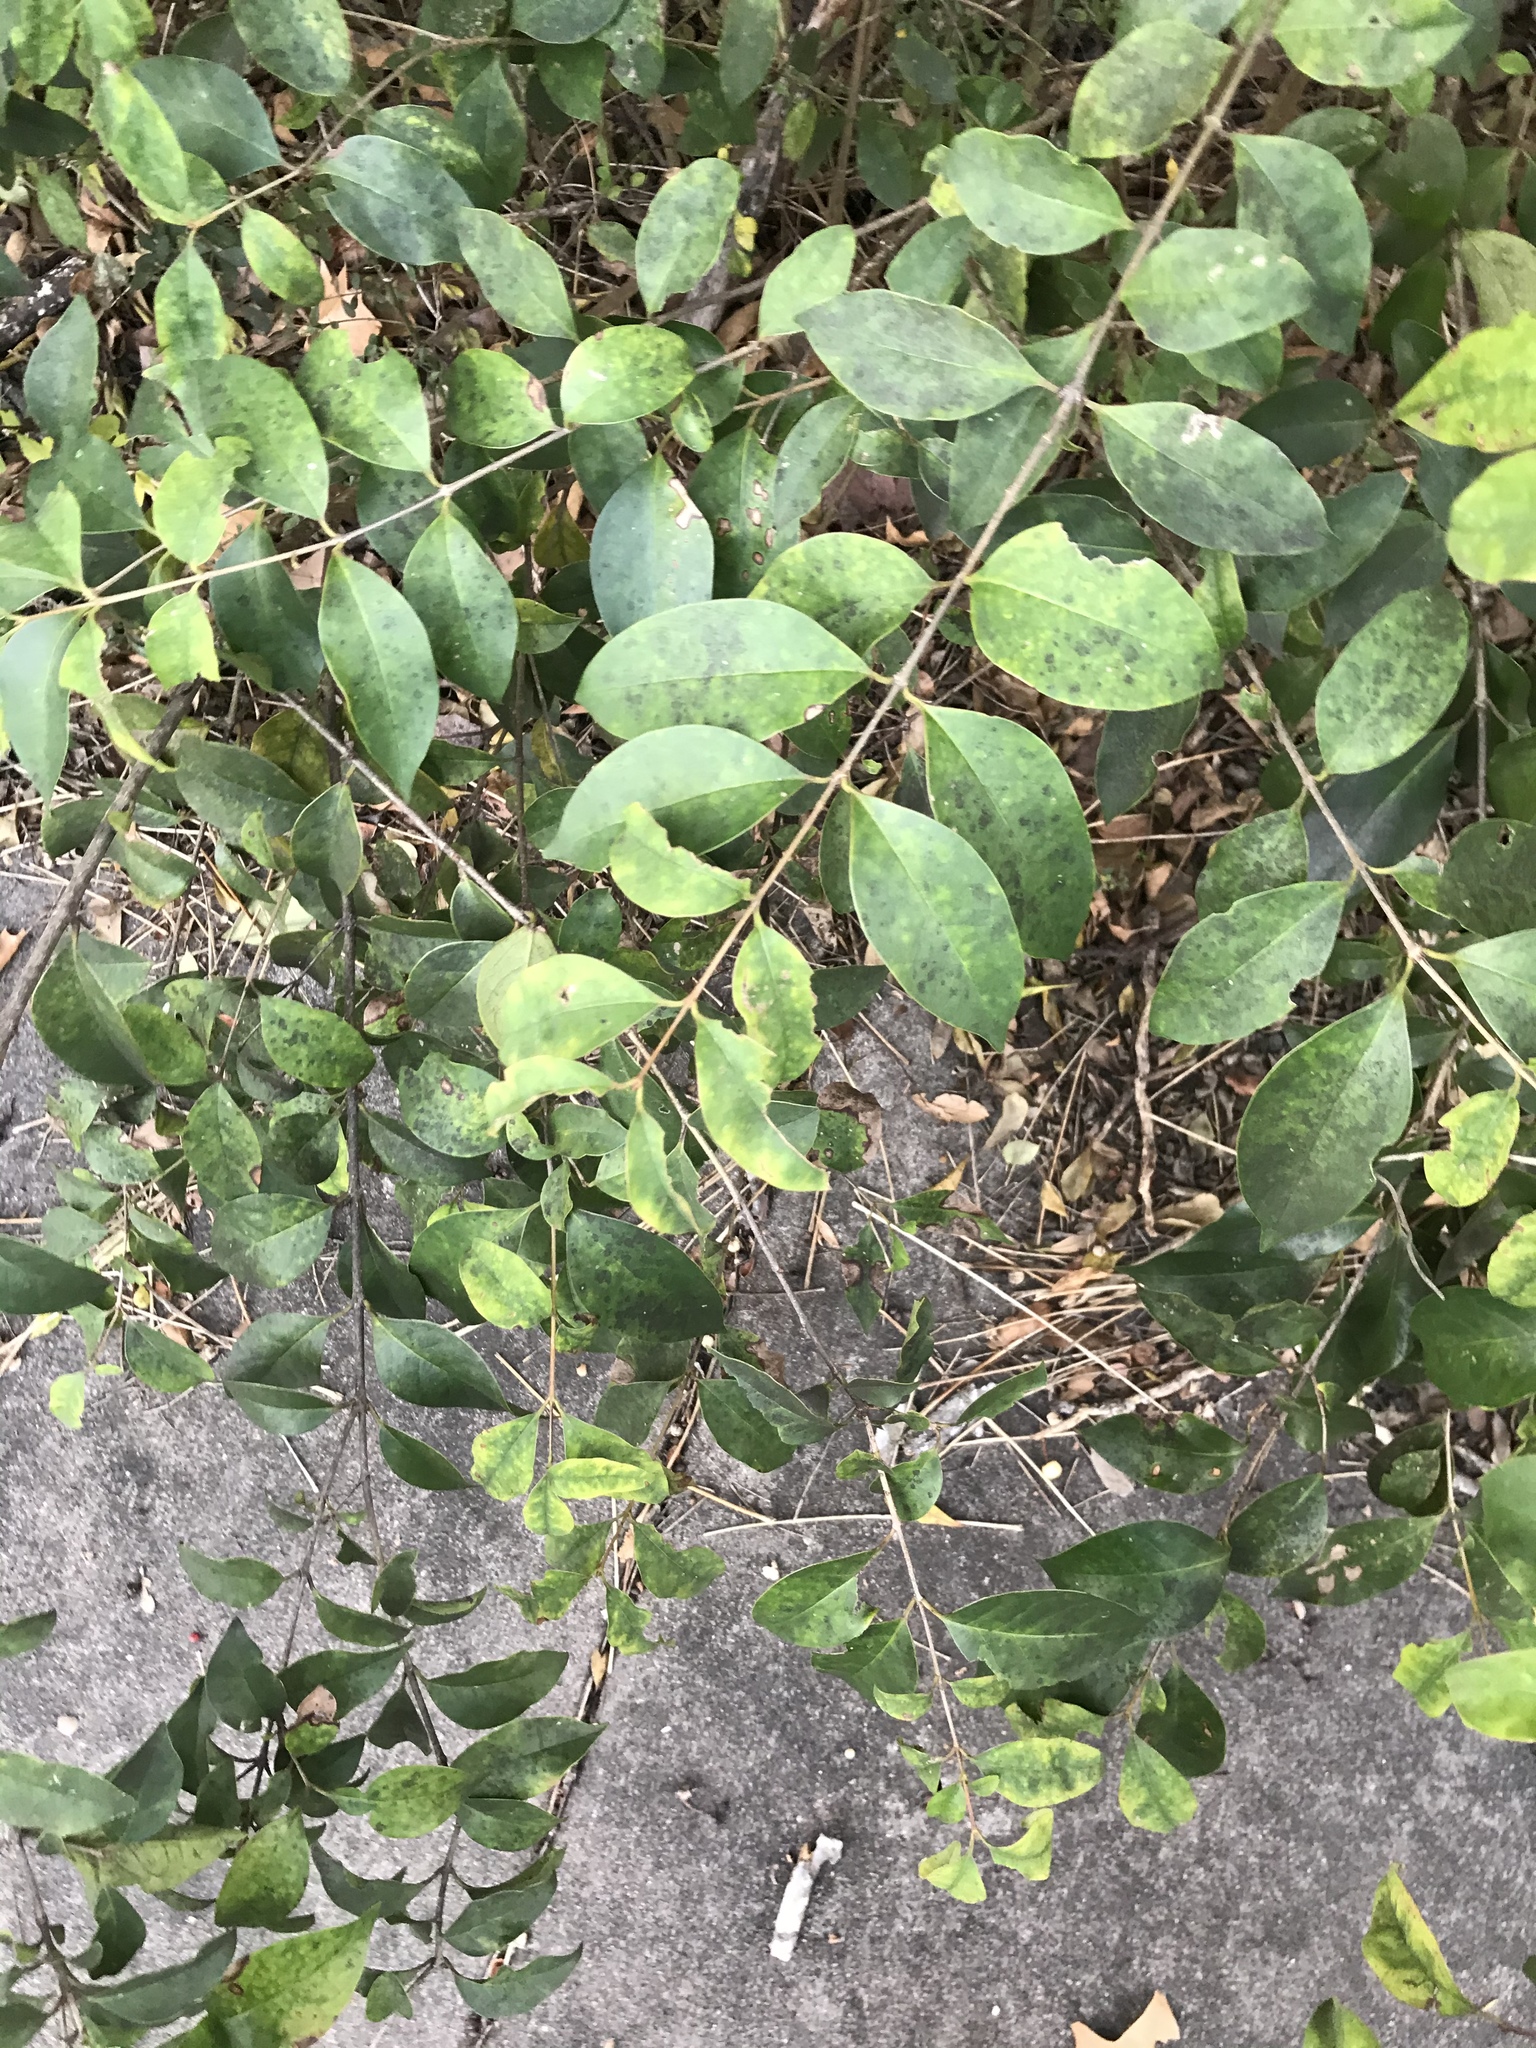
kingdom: Plantae
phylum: Tracheophyta
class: Magnoliopsida
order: Lamiales
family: Oleaceae
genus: Ligustrum
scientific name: Ligustrum lucidum
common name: Glossy privet
